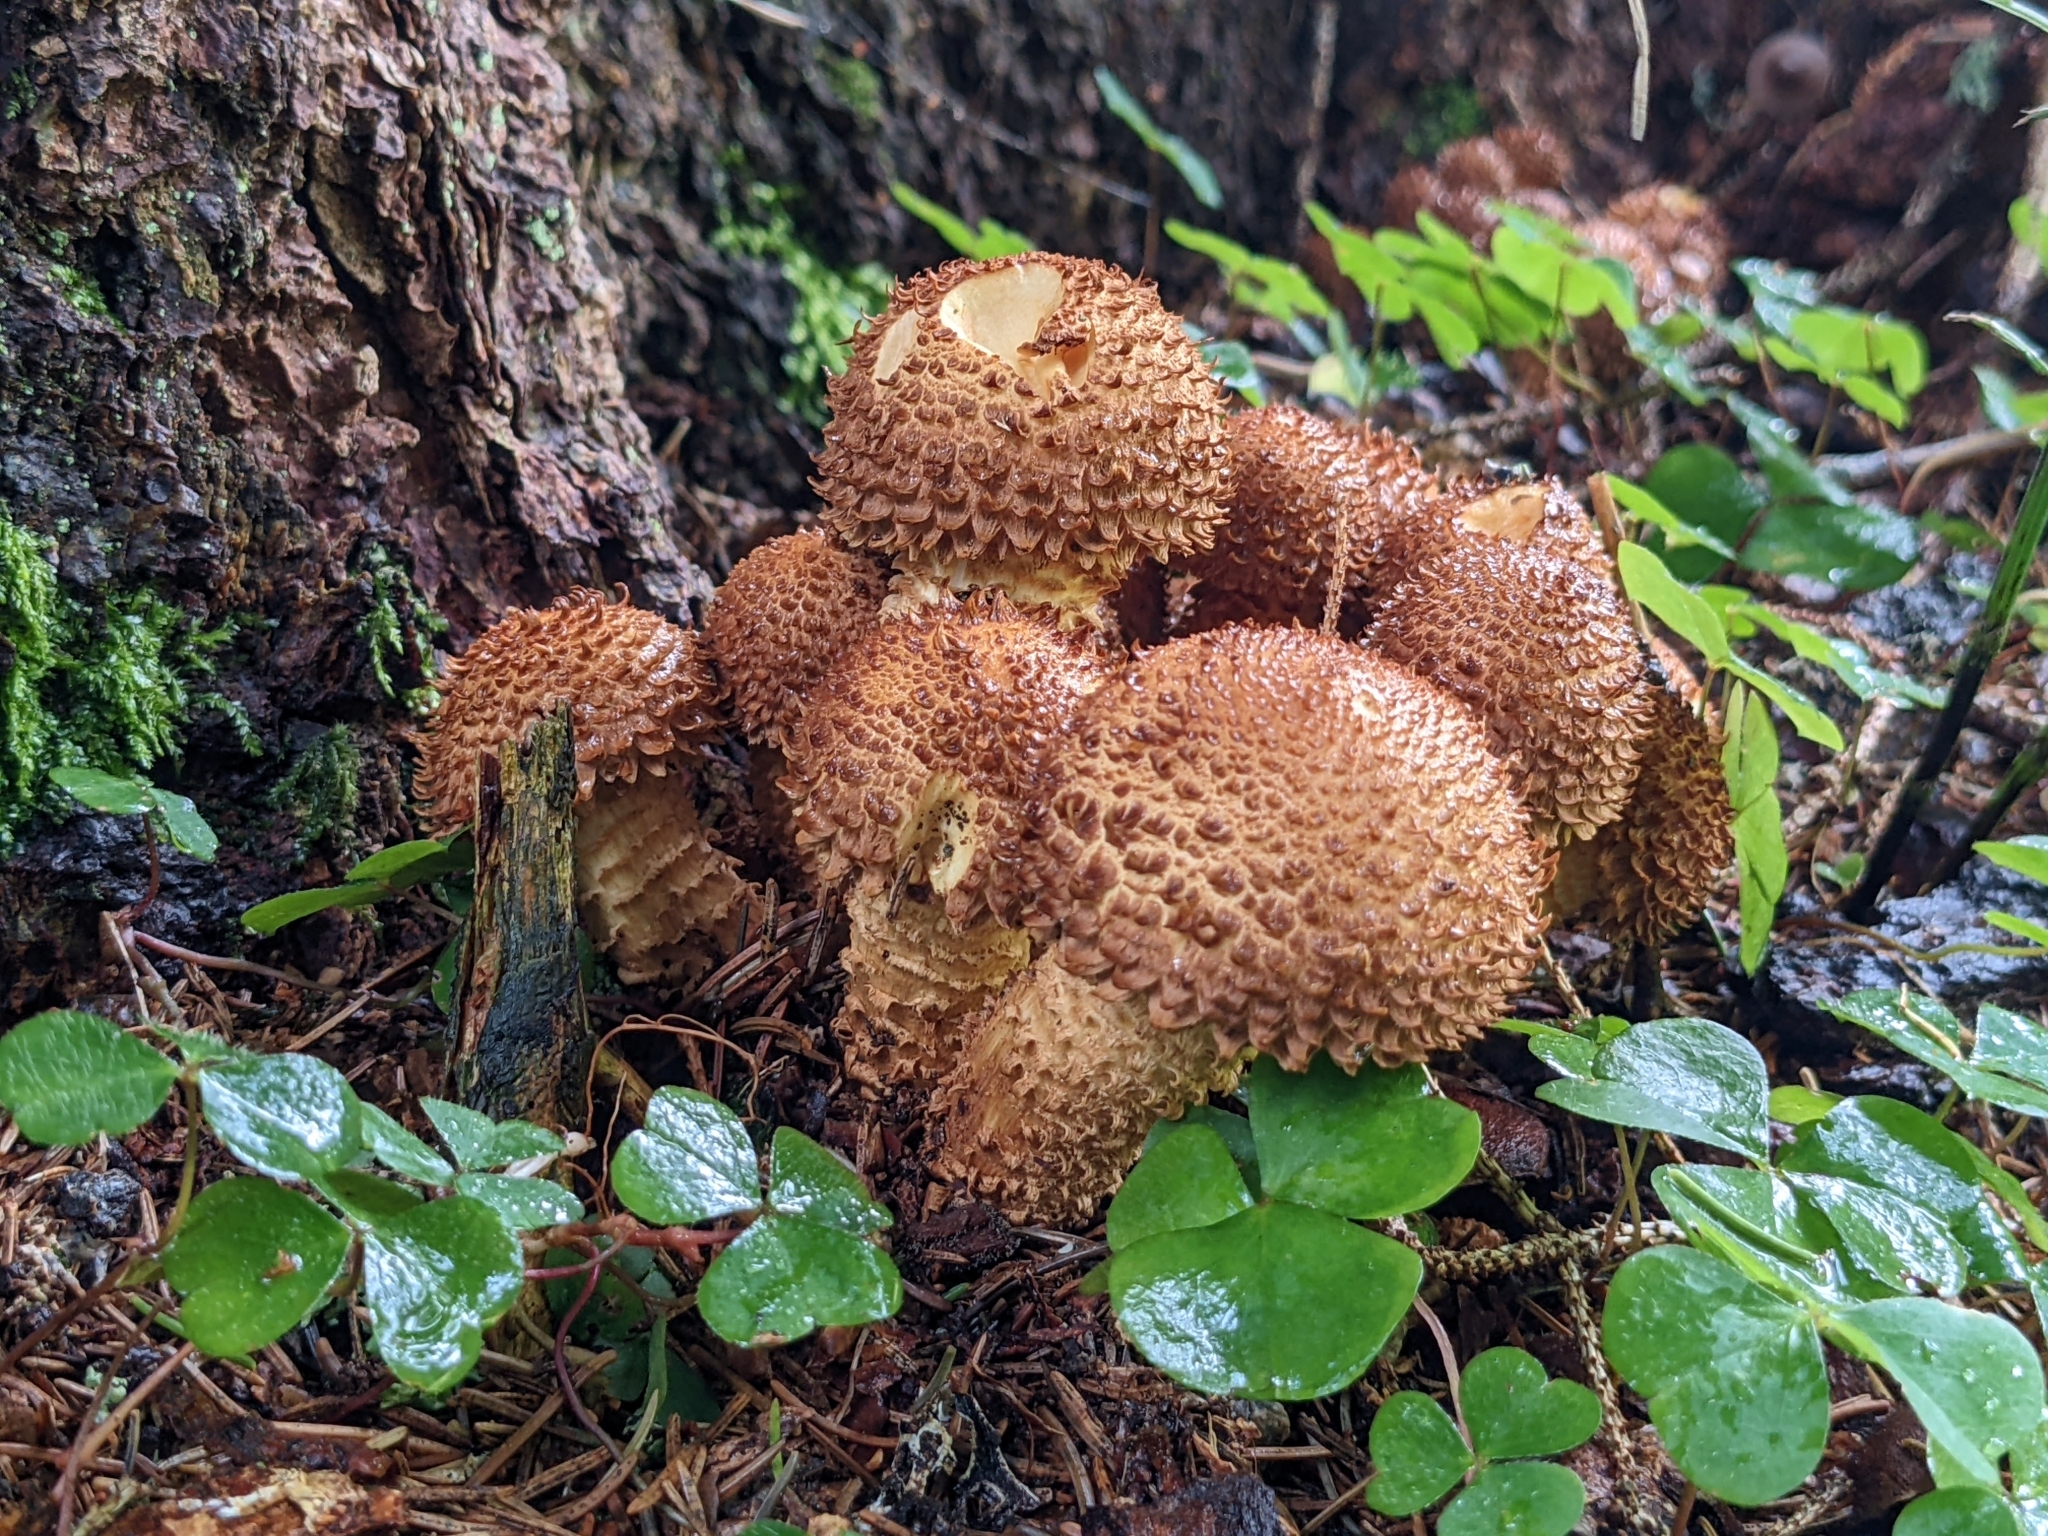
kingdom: Fungi
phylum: Basidiomycota
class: Agaricomycetes
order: Agaricales
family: Strophariaceae
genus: Pholiota
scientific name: Pholiota squarrosa
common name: Shaggy pholiota
